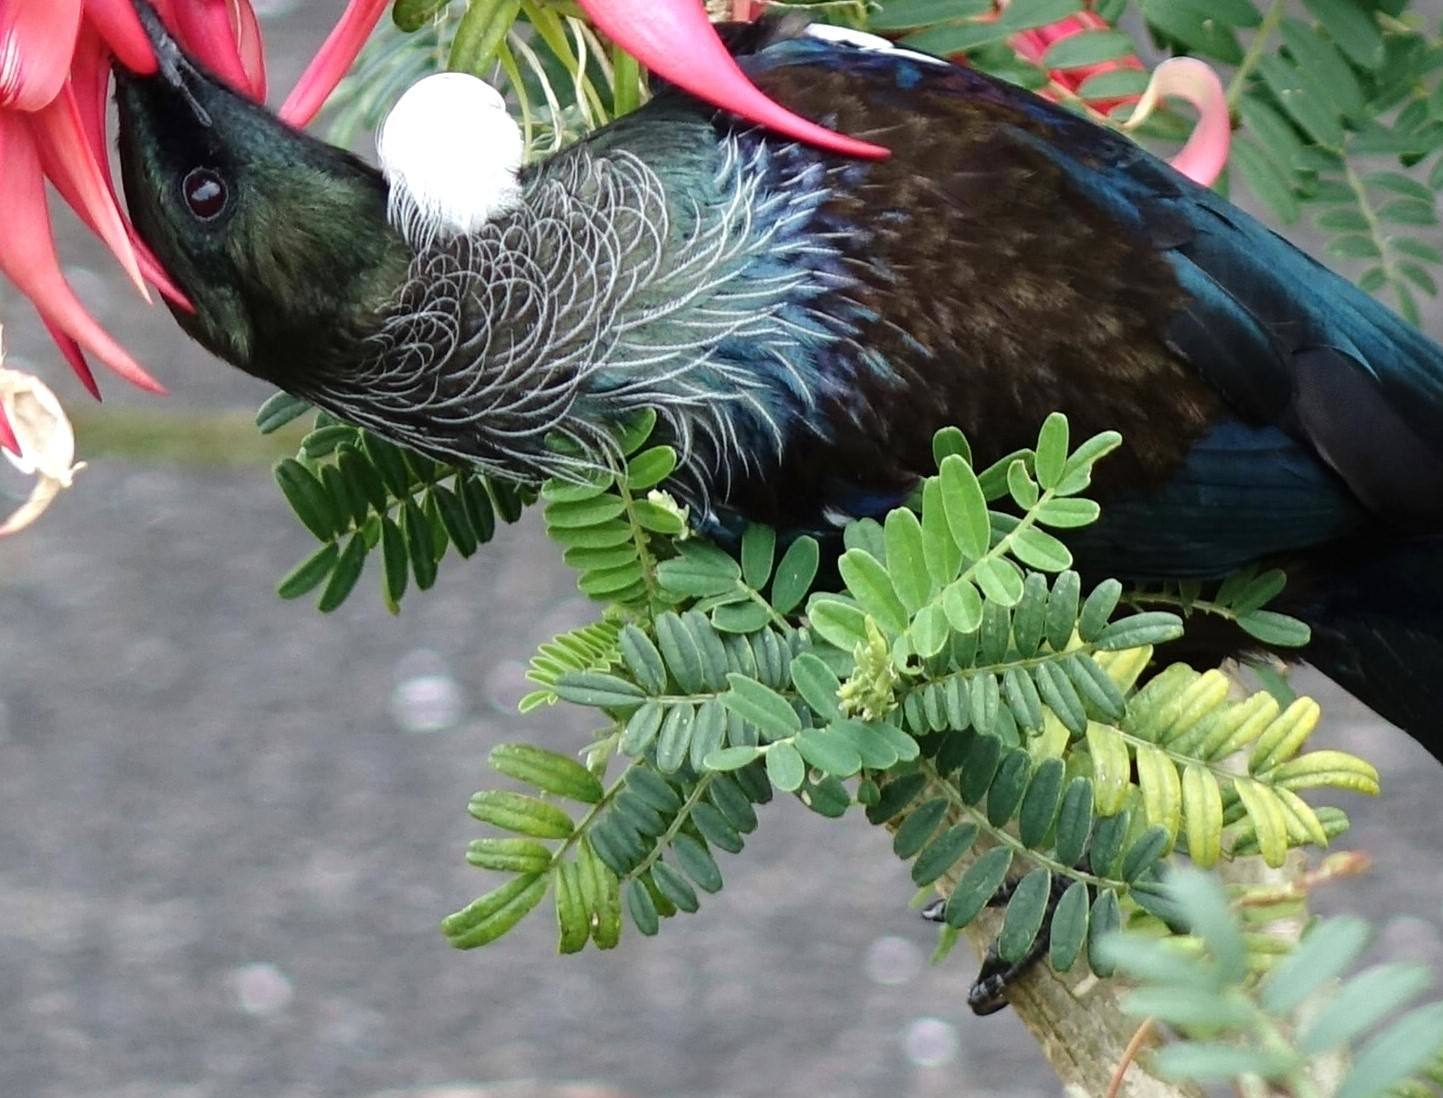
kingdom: Animalia
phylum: Chordata
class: Aves
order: Passeriformes
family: Meliphagidae
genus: Prosthemadera
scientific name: Prosthemadera novaeseelandiae
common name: Tui
